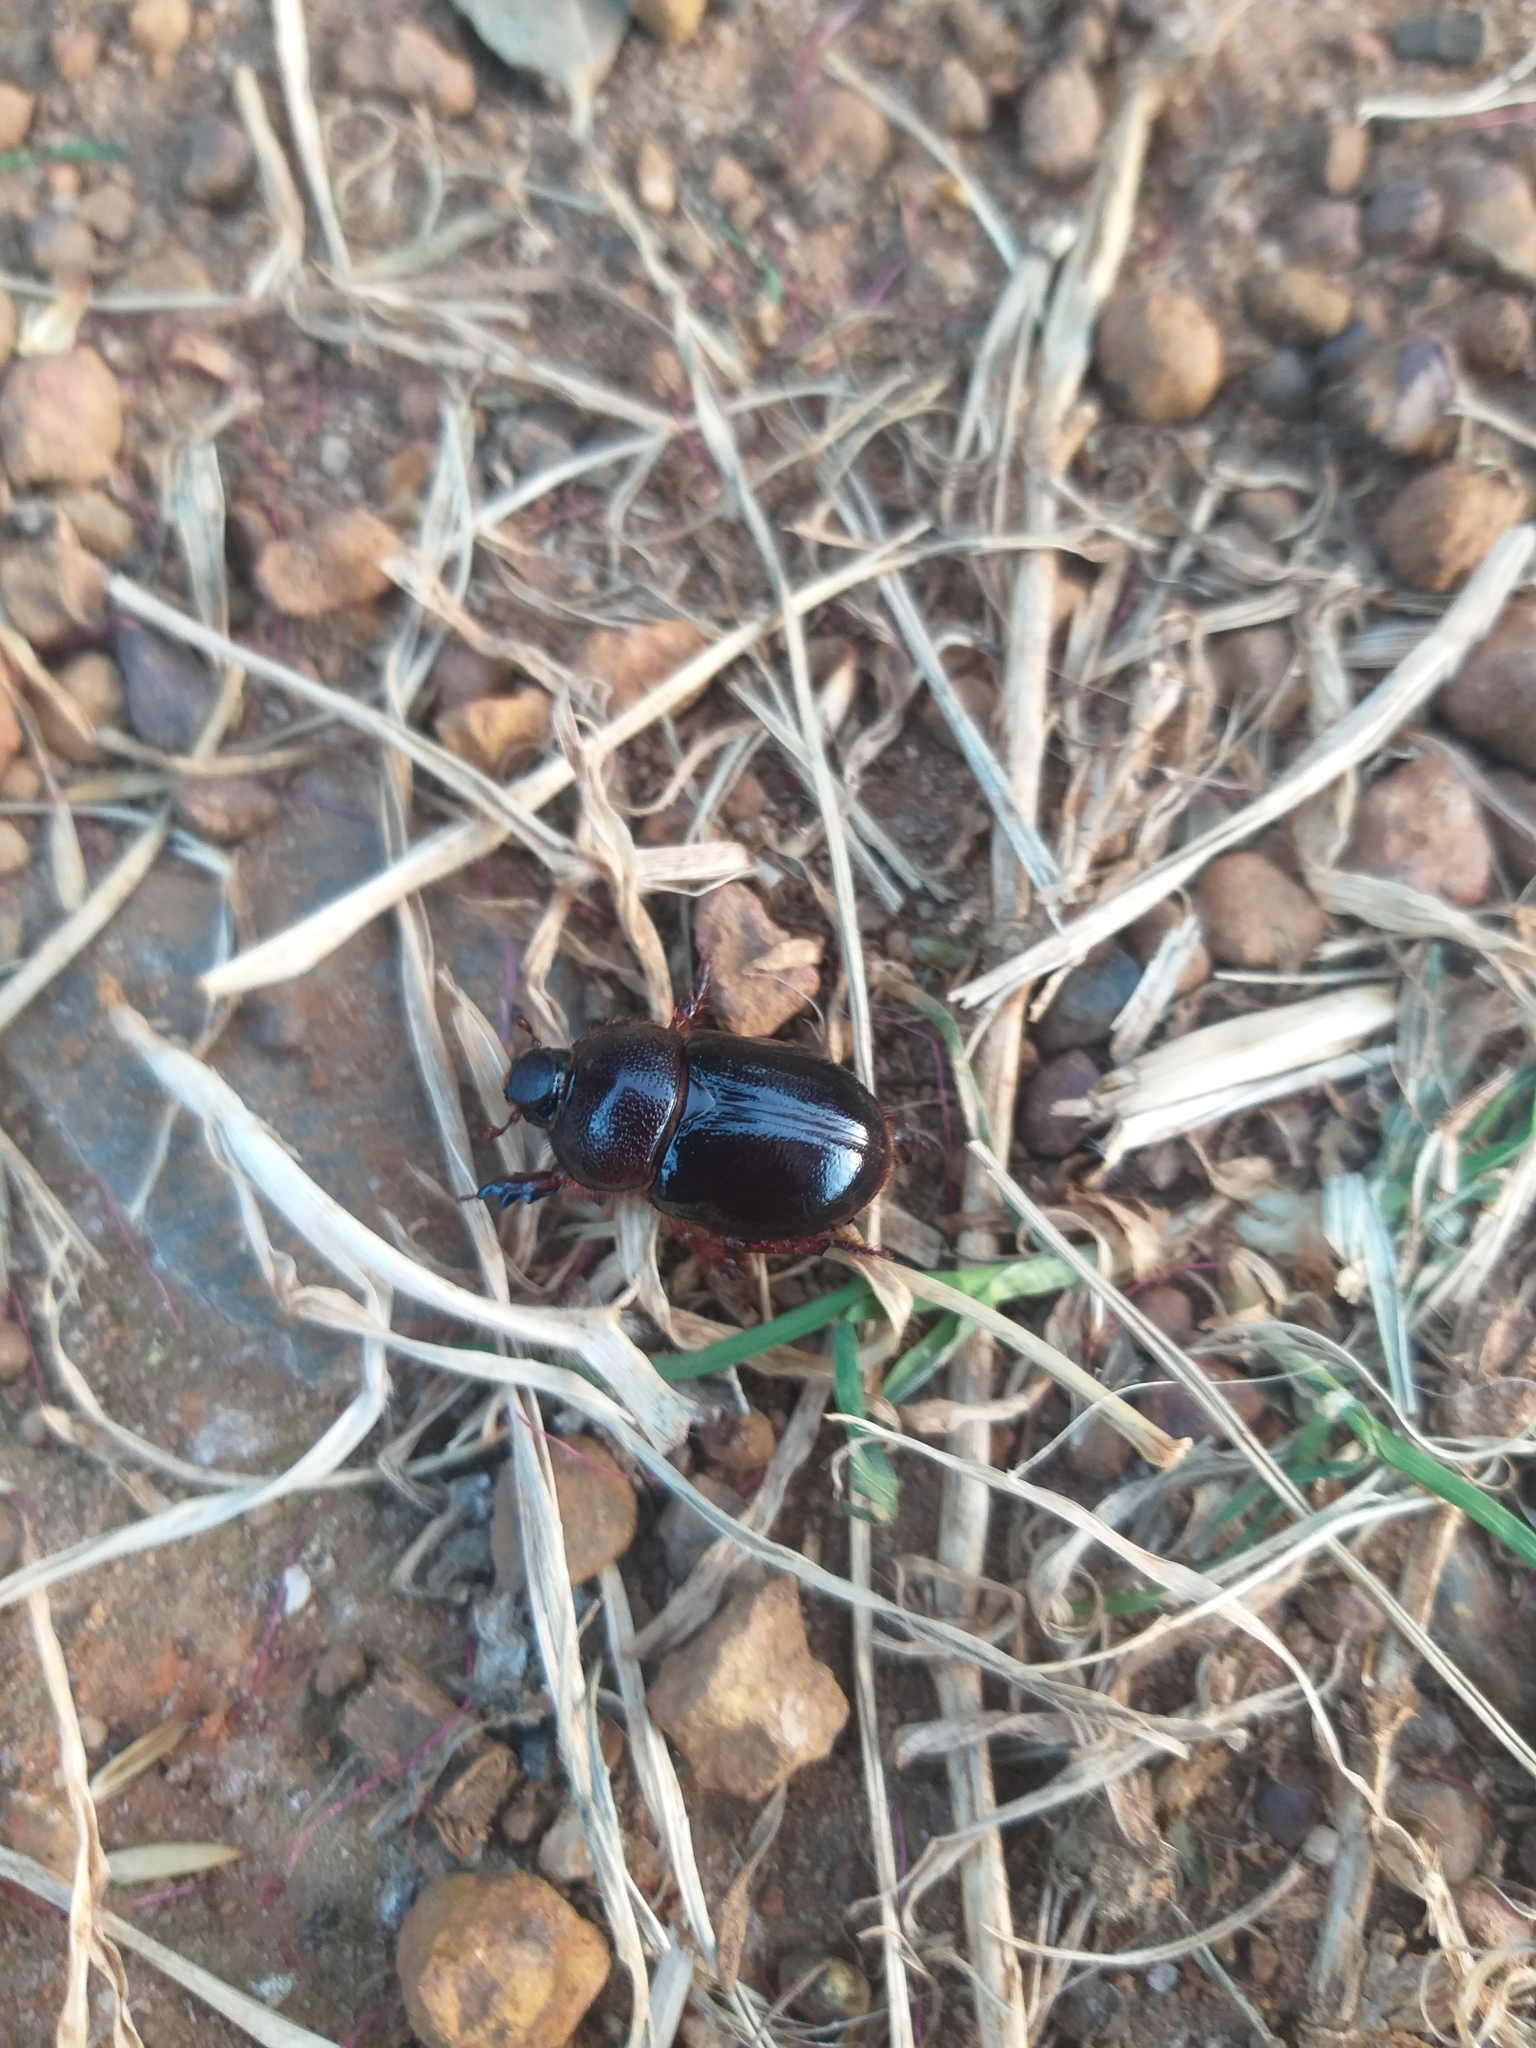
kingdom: Animalia
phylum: Arthropoda
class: Insecta
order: Coleoptera
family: Scarabaeidae
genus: Temnorhynchus
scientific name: Temnorhynchus retusus
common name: Plate-faced beetle
